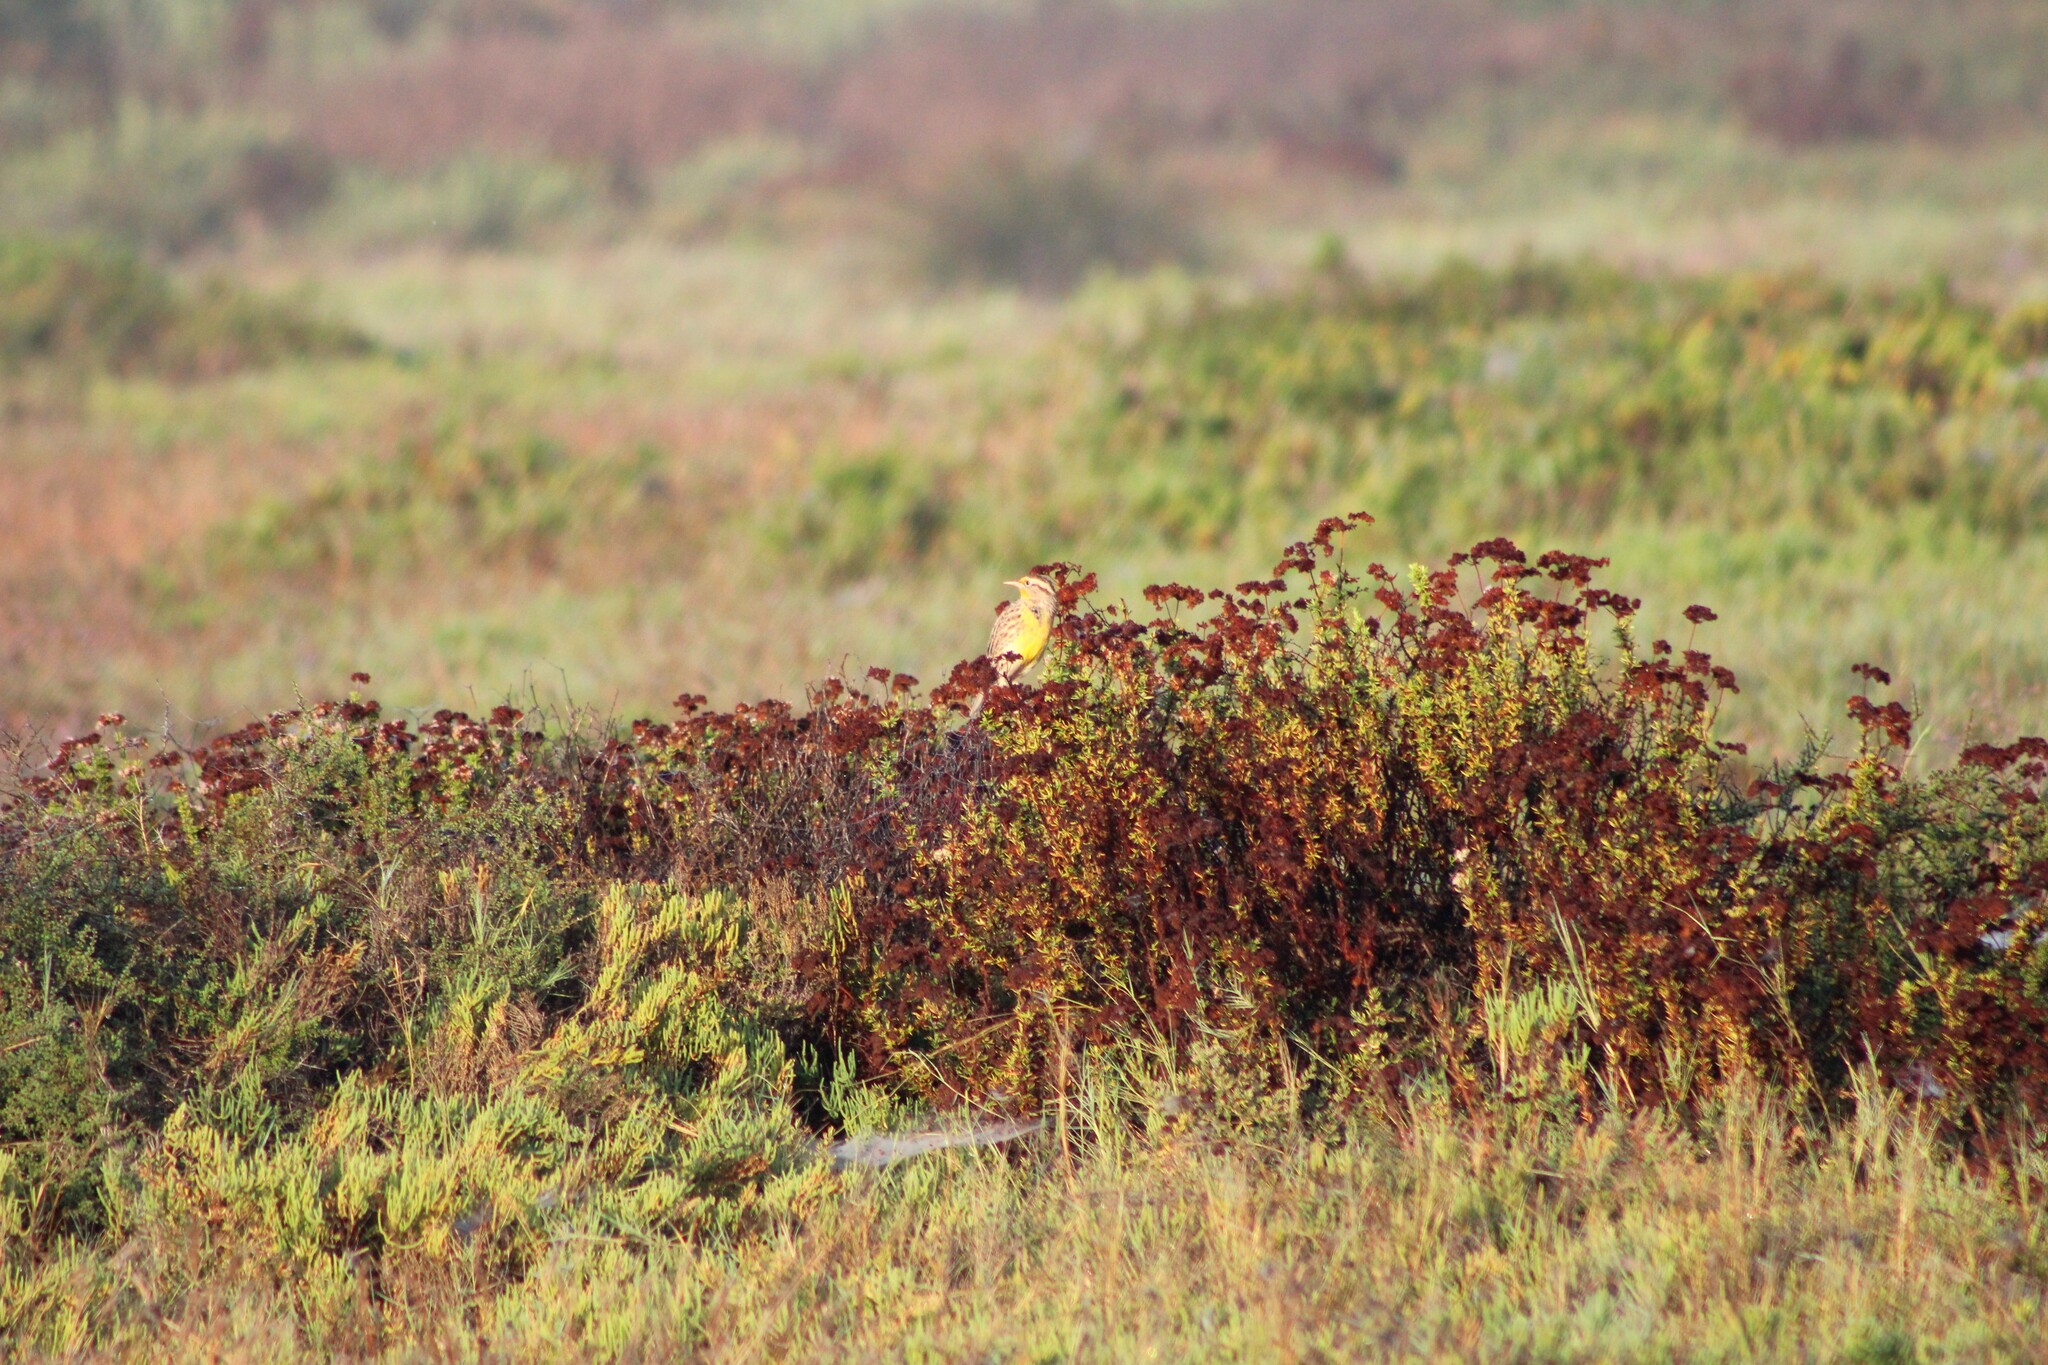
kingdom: Animalia
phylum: Chordata
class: Aves
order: Passeriformes
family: Icteridae
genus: Sturnella
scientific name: Sturnella neglecta
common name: Western meadowlark
